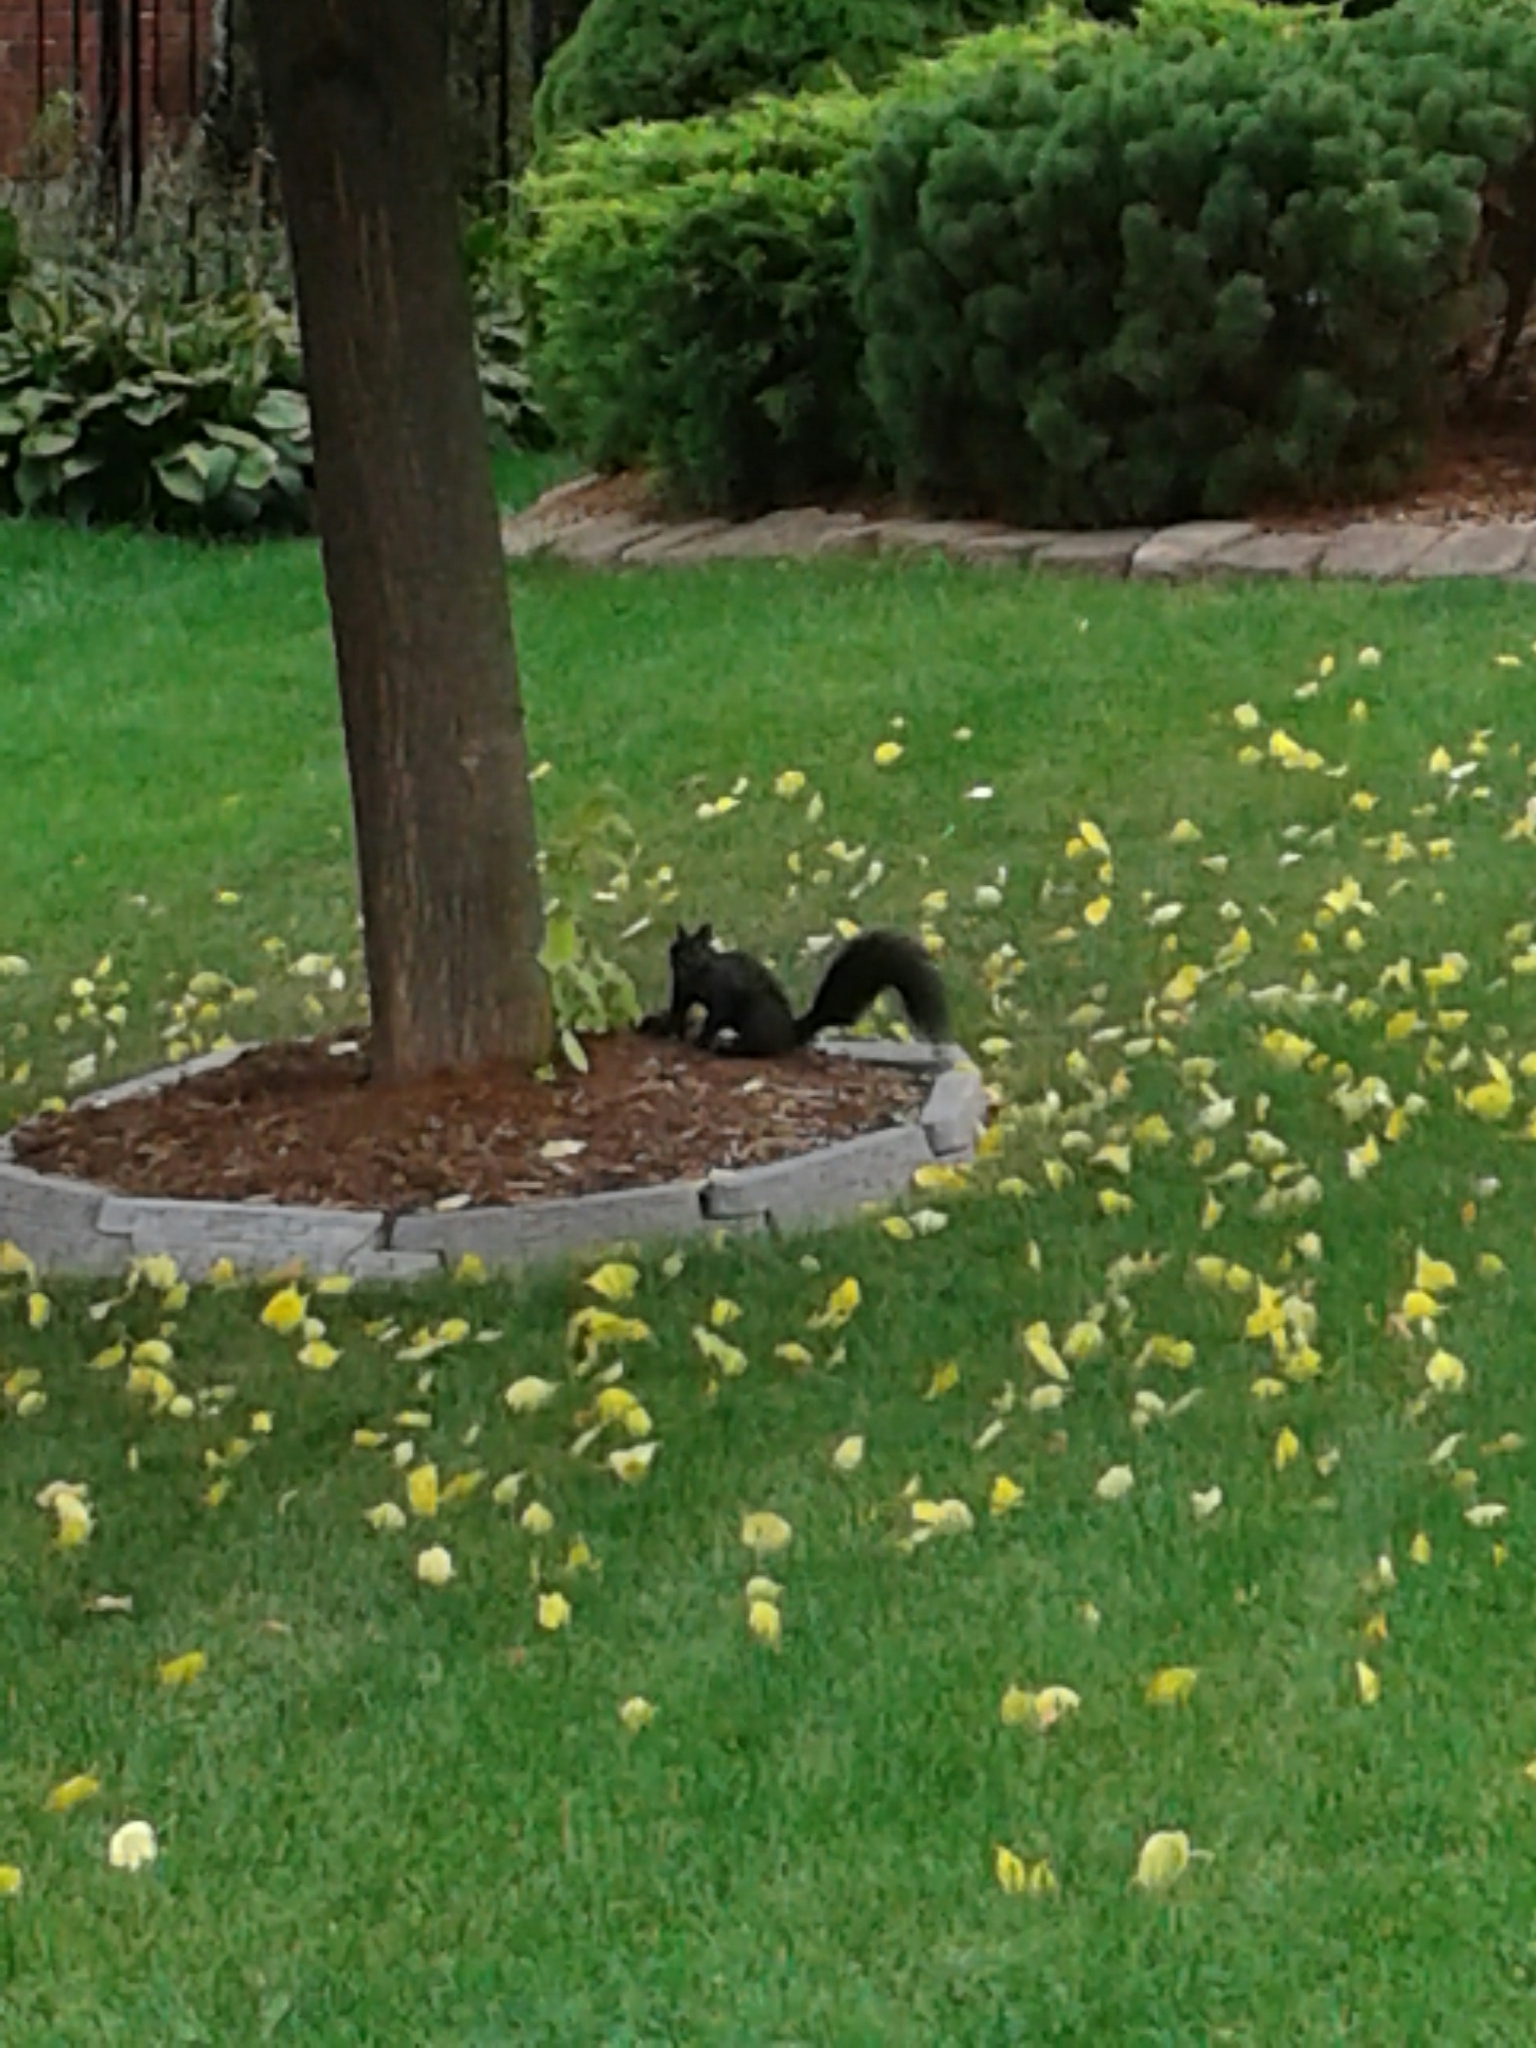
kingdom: Animalia
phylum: Chordata
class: Mammalia
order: Rodentia
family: Sciuridae
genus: Sciurus
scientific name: Sciurus carolinensis
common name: Eastern gray squirrel
